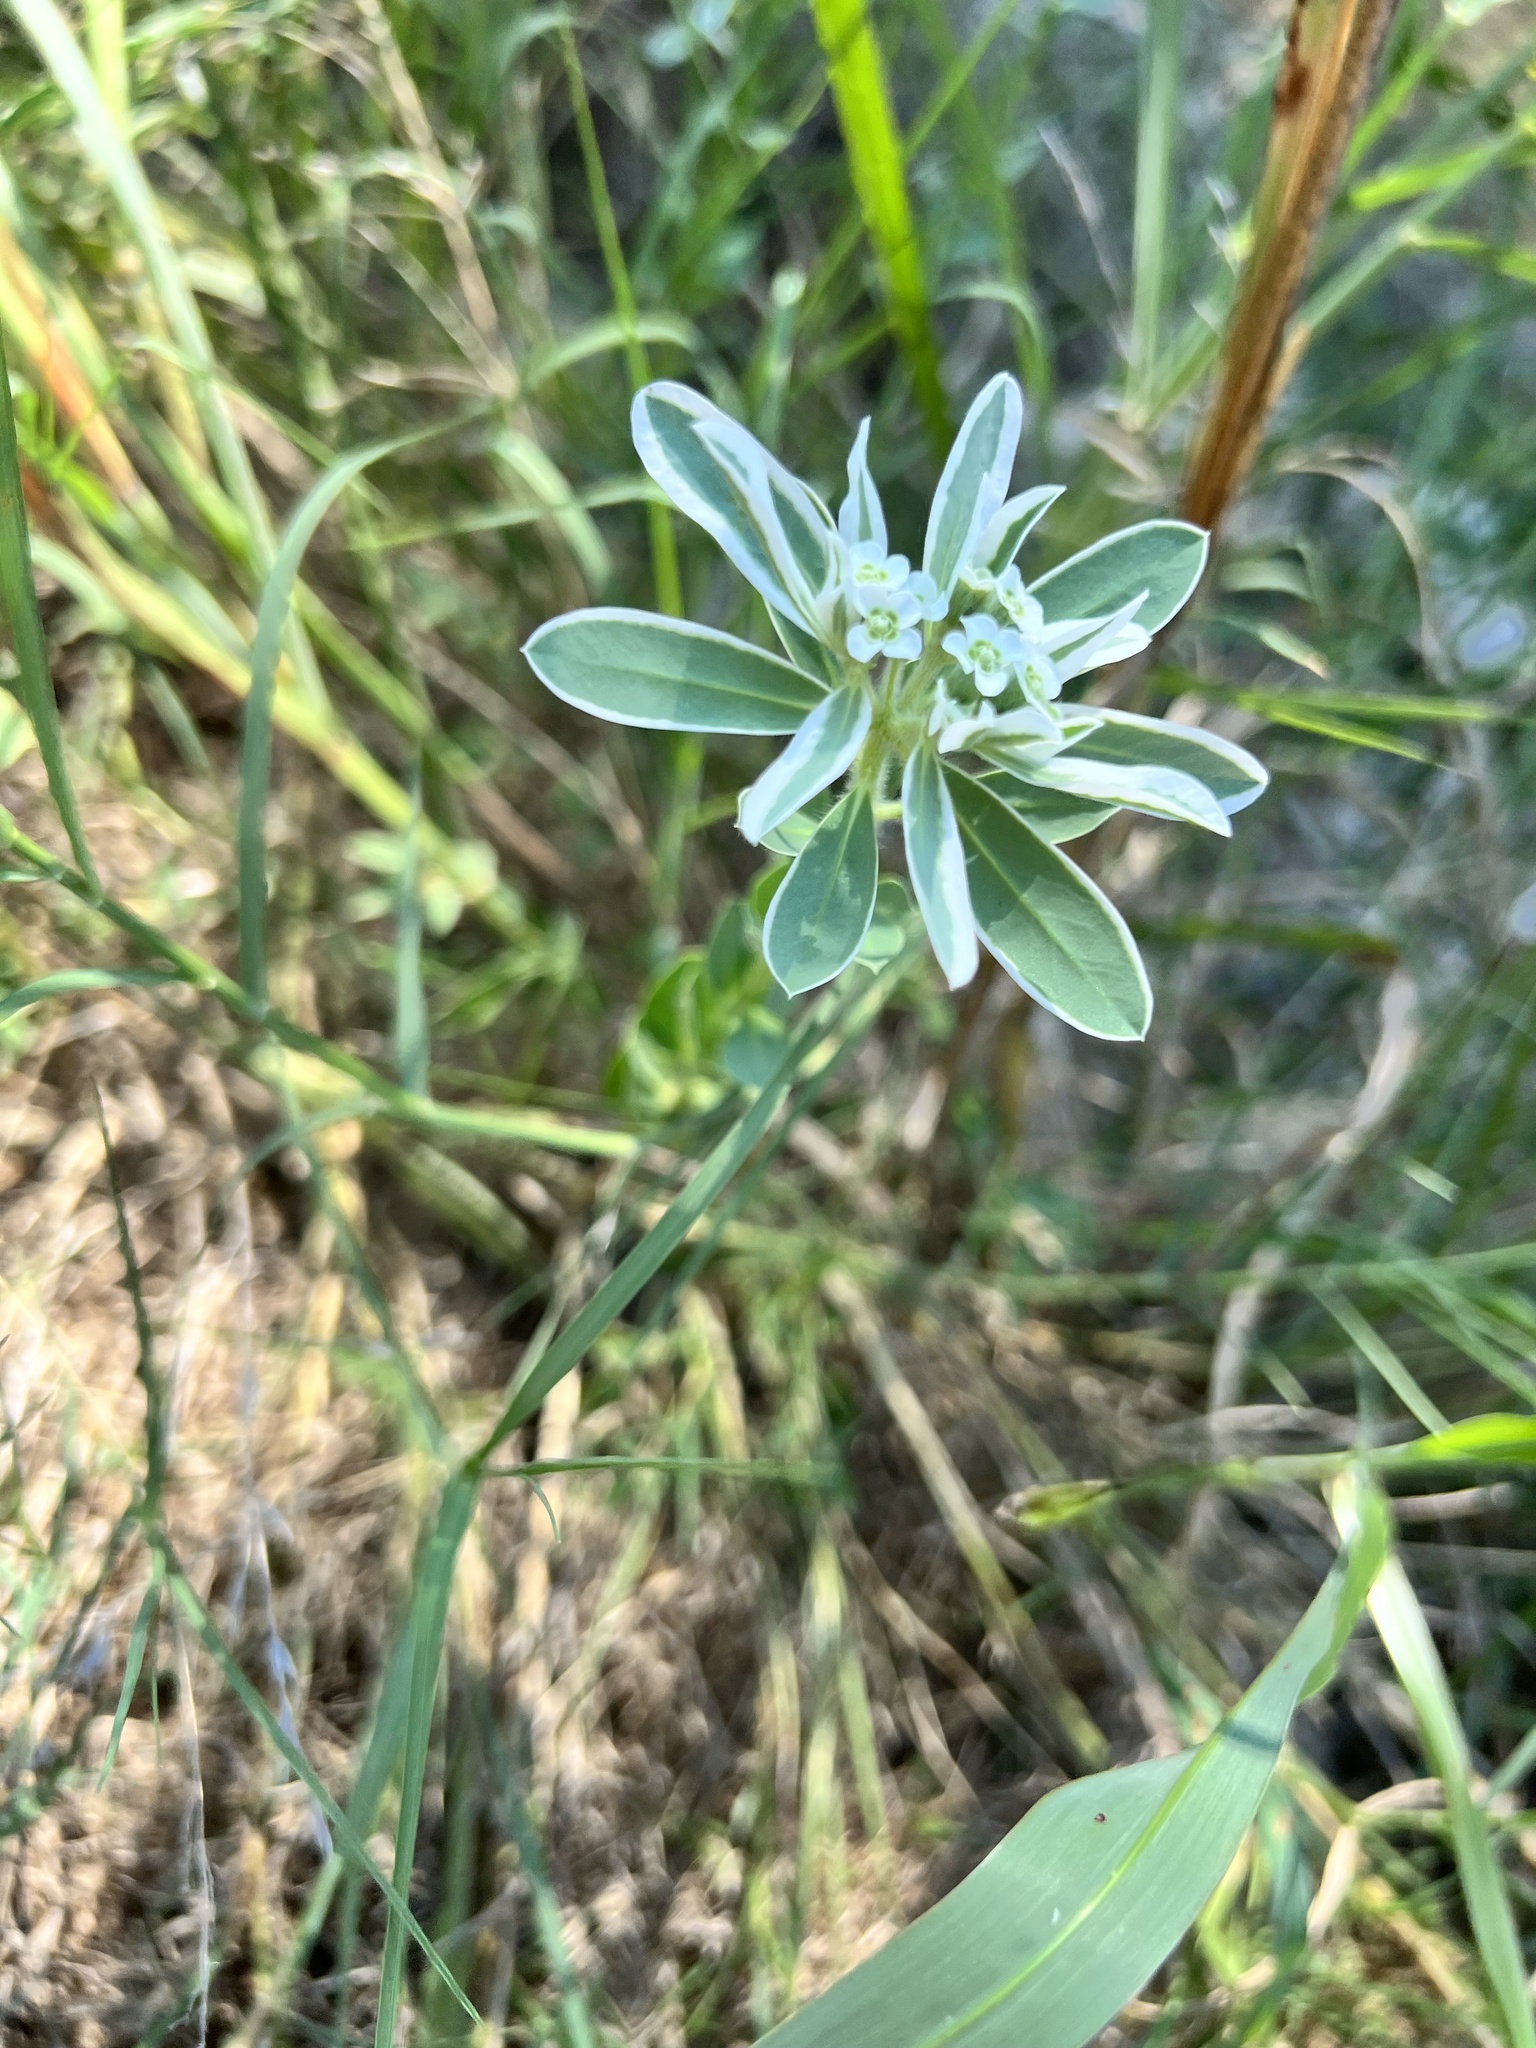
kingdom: Plantae
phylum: Tracheophyta
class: Magnoliopsida
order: Malpighiales
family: Euphorbiaceae
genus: Euphorbia
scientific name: Euphorbia marginata
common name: Ghostweed
